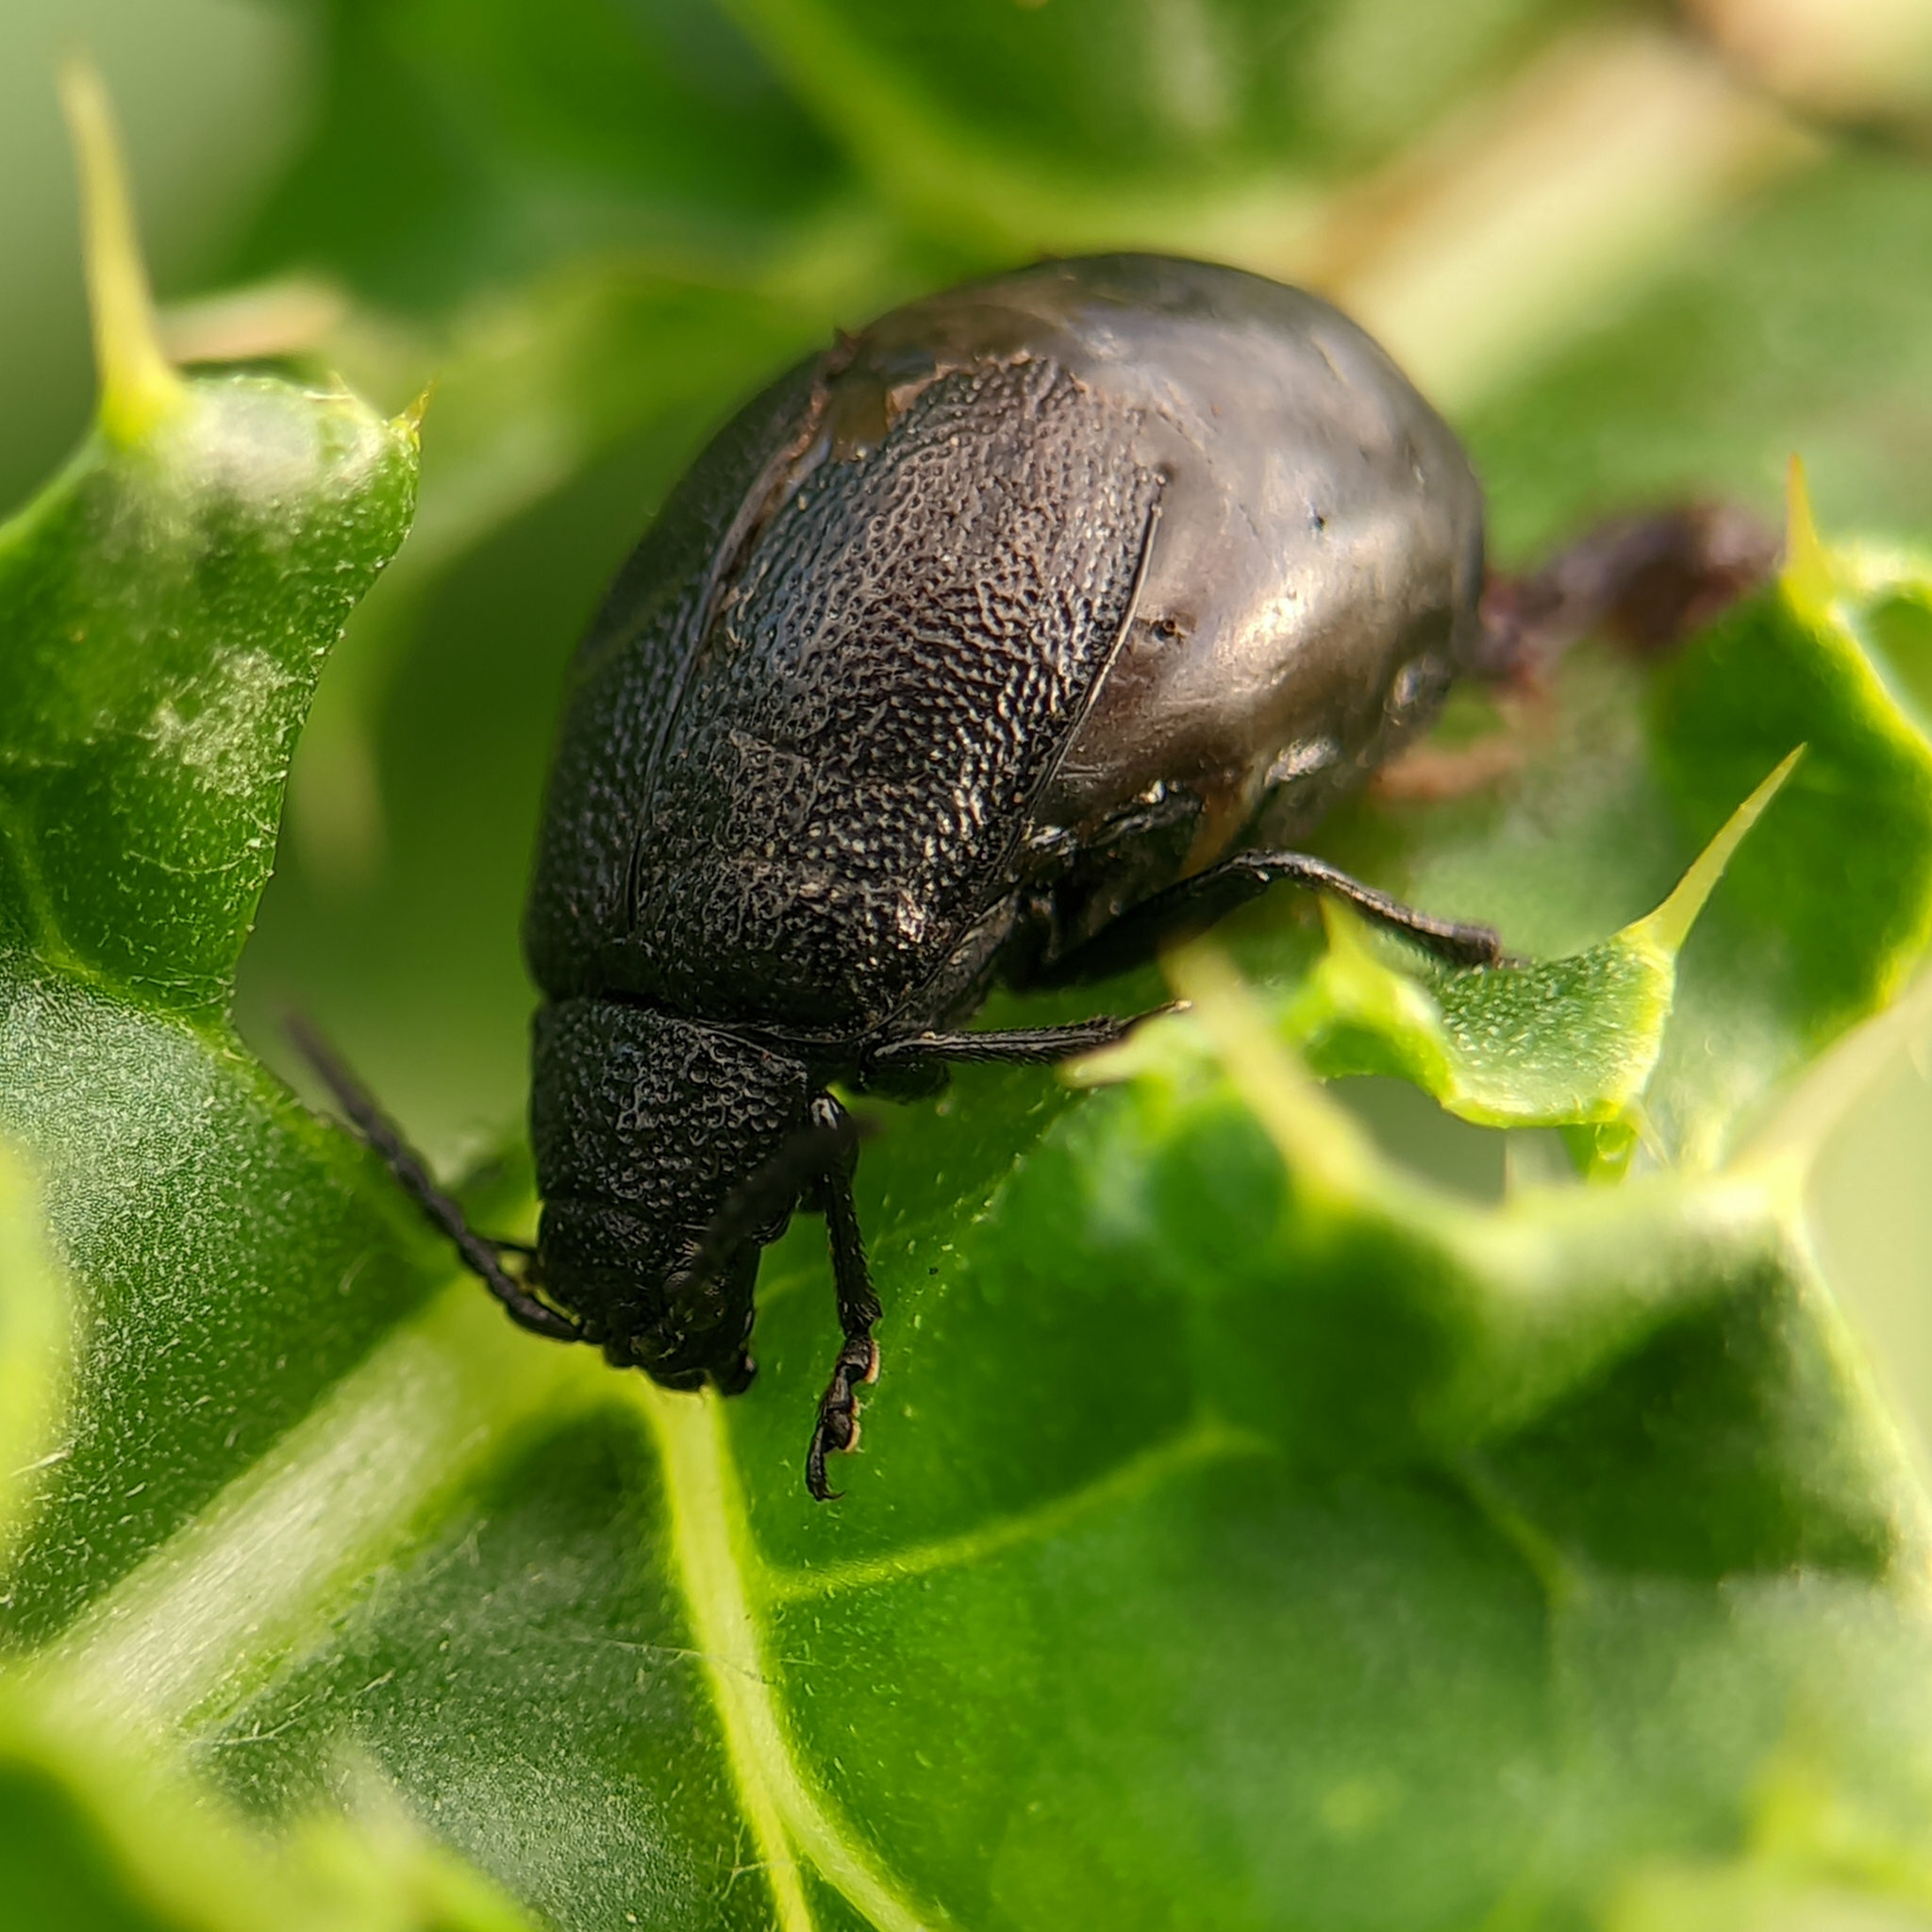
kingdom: Animalia
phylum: Arthropoda
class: Insecta
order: Coleoptera
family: Chrysomelidae
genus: Galeruca
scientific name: Galeruca tanaceti
